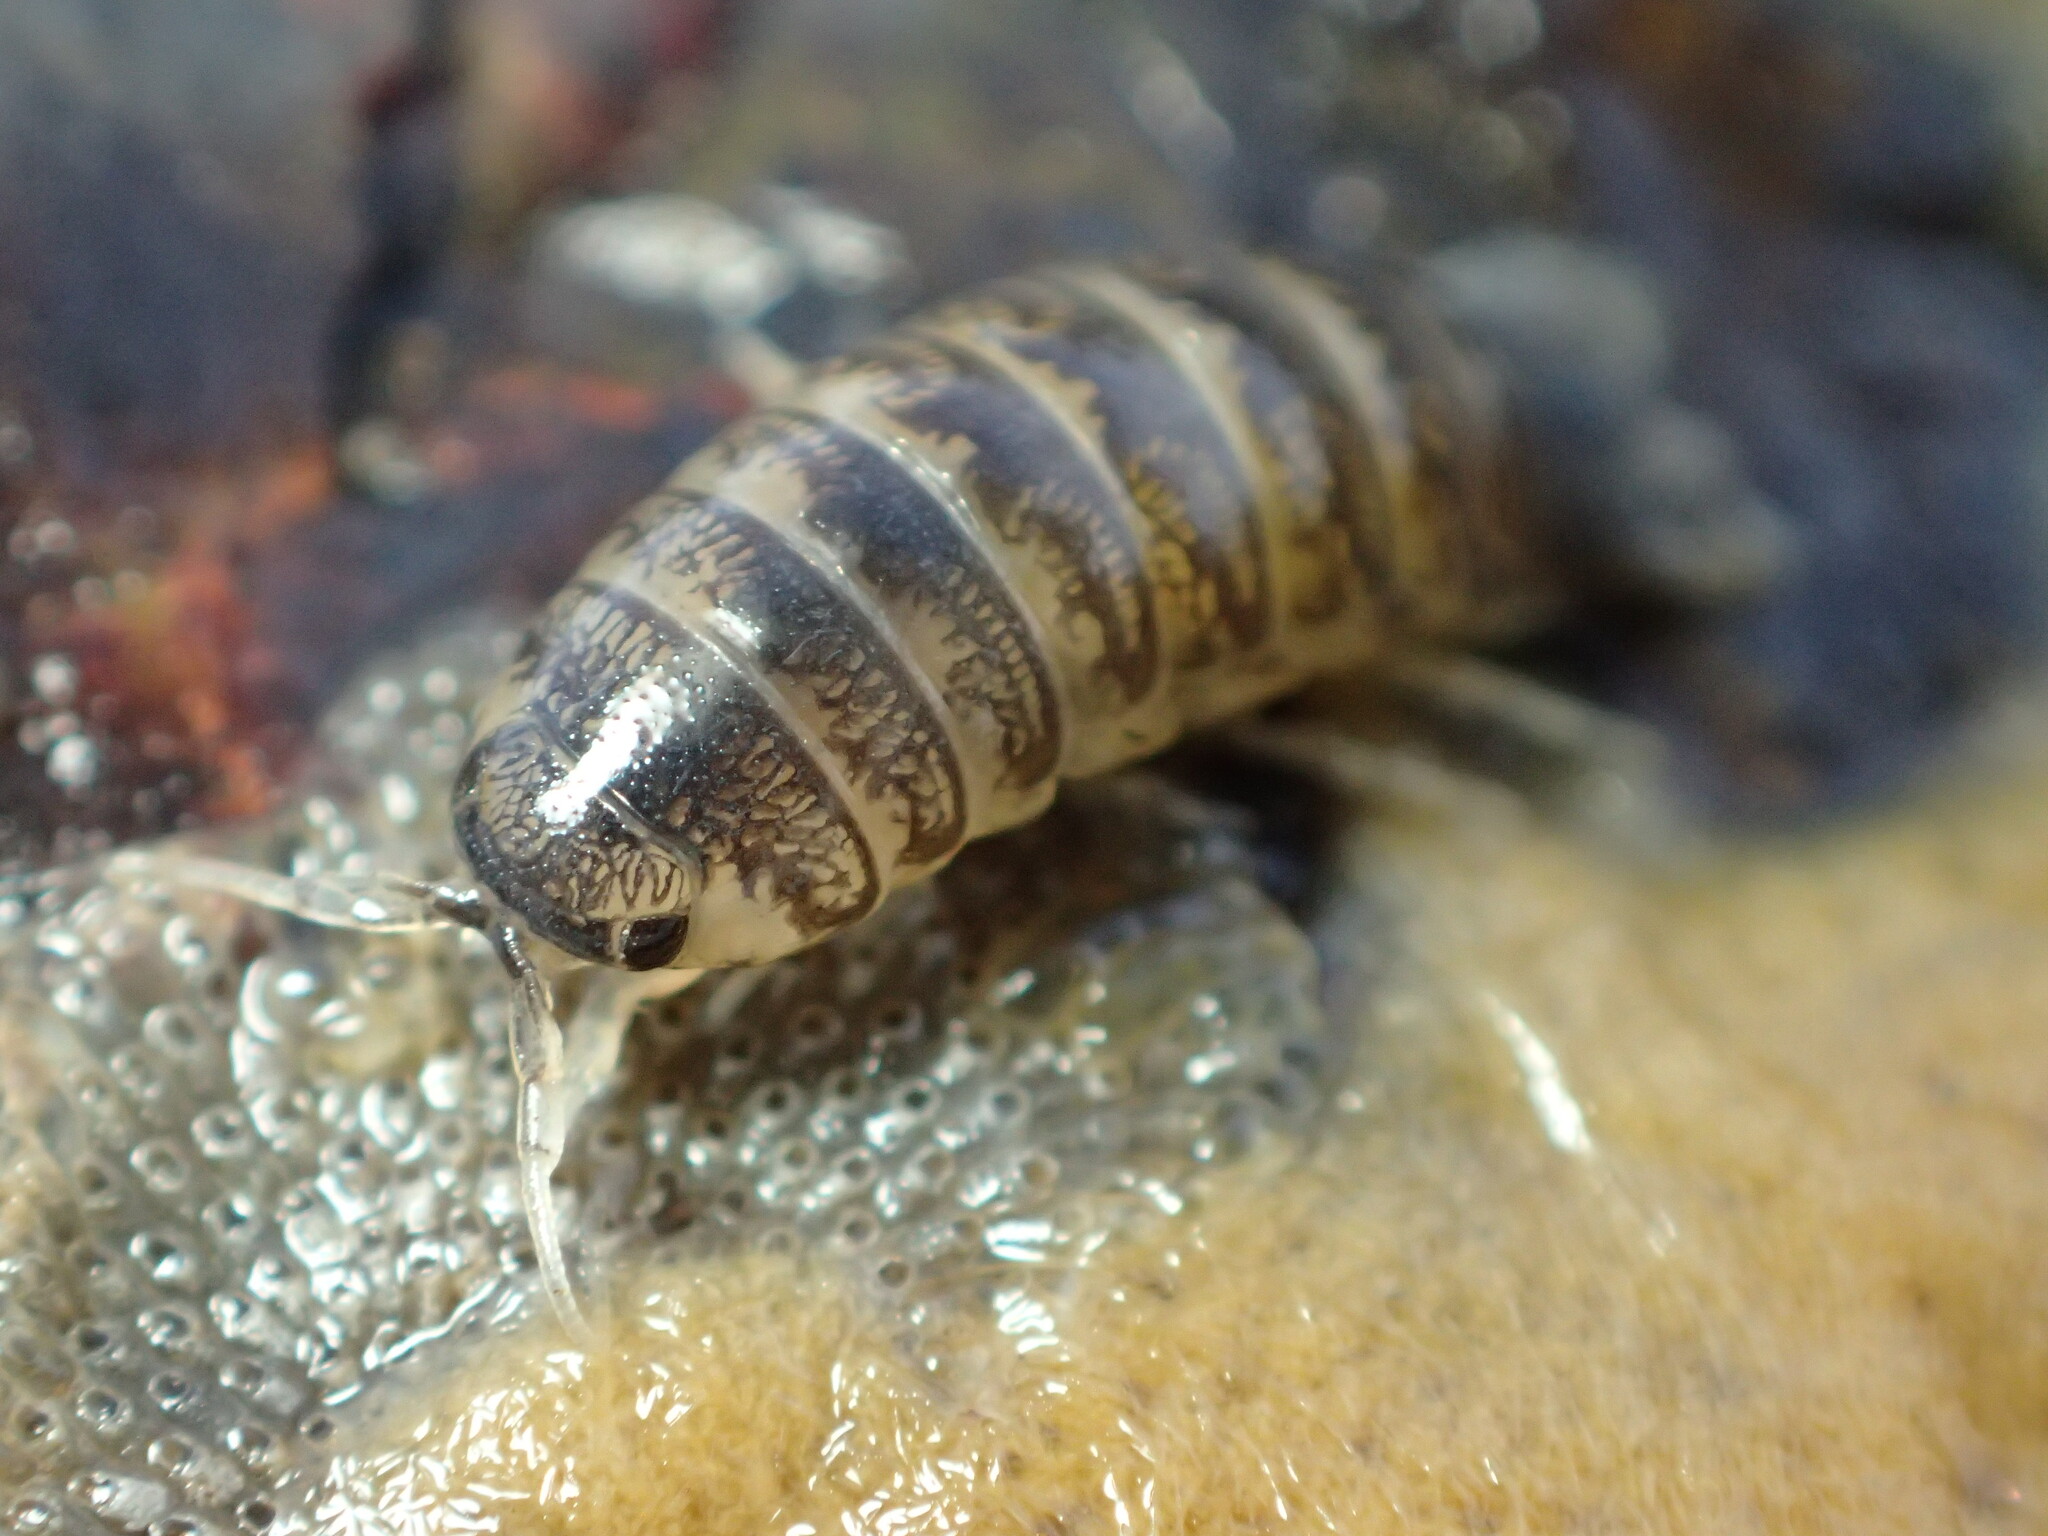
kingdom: Animalia
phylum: Arthropoda
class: Malacostraca
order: Isopoda
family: Cirolanidae
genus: Cirolana
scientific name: Cirolana harfordi
